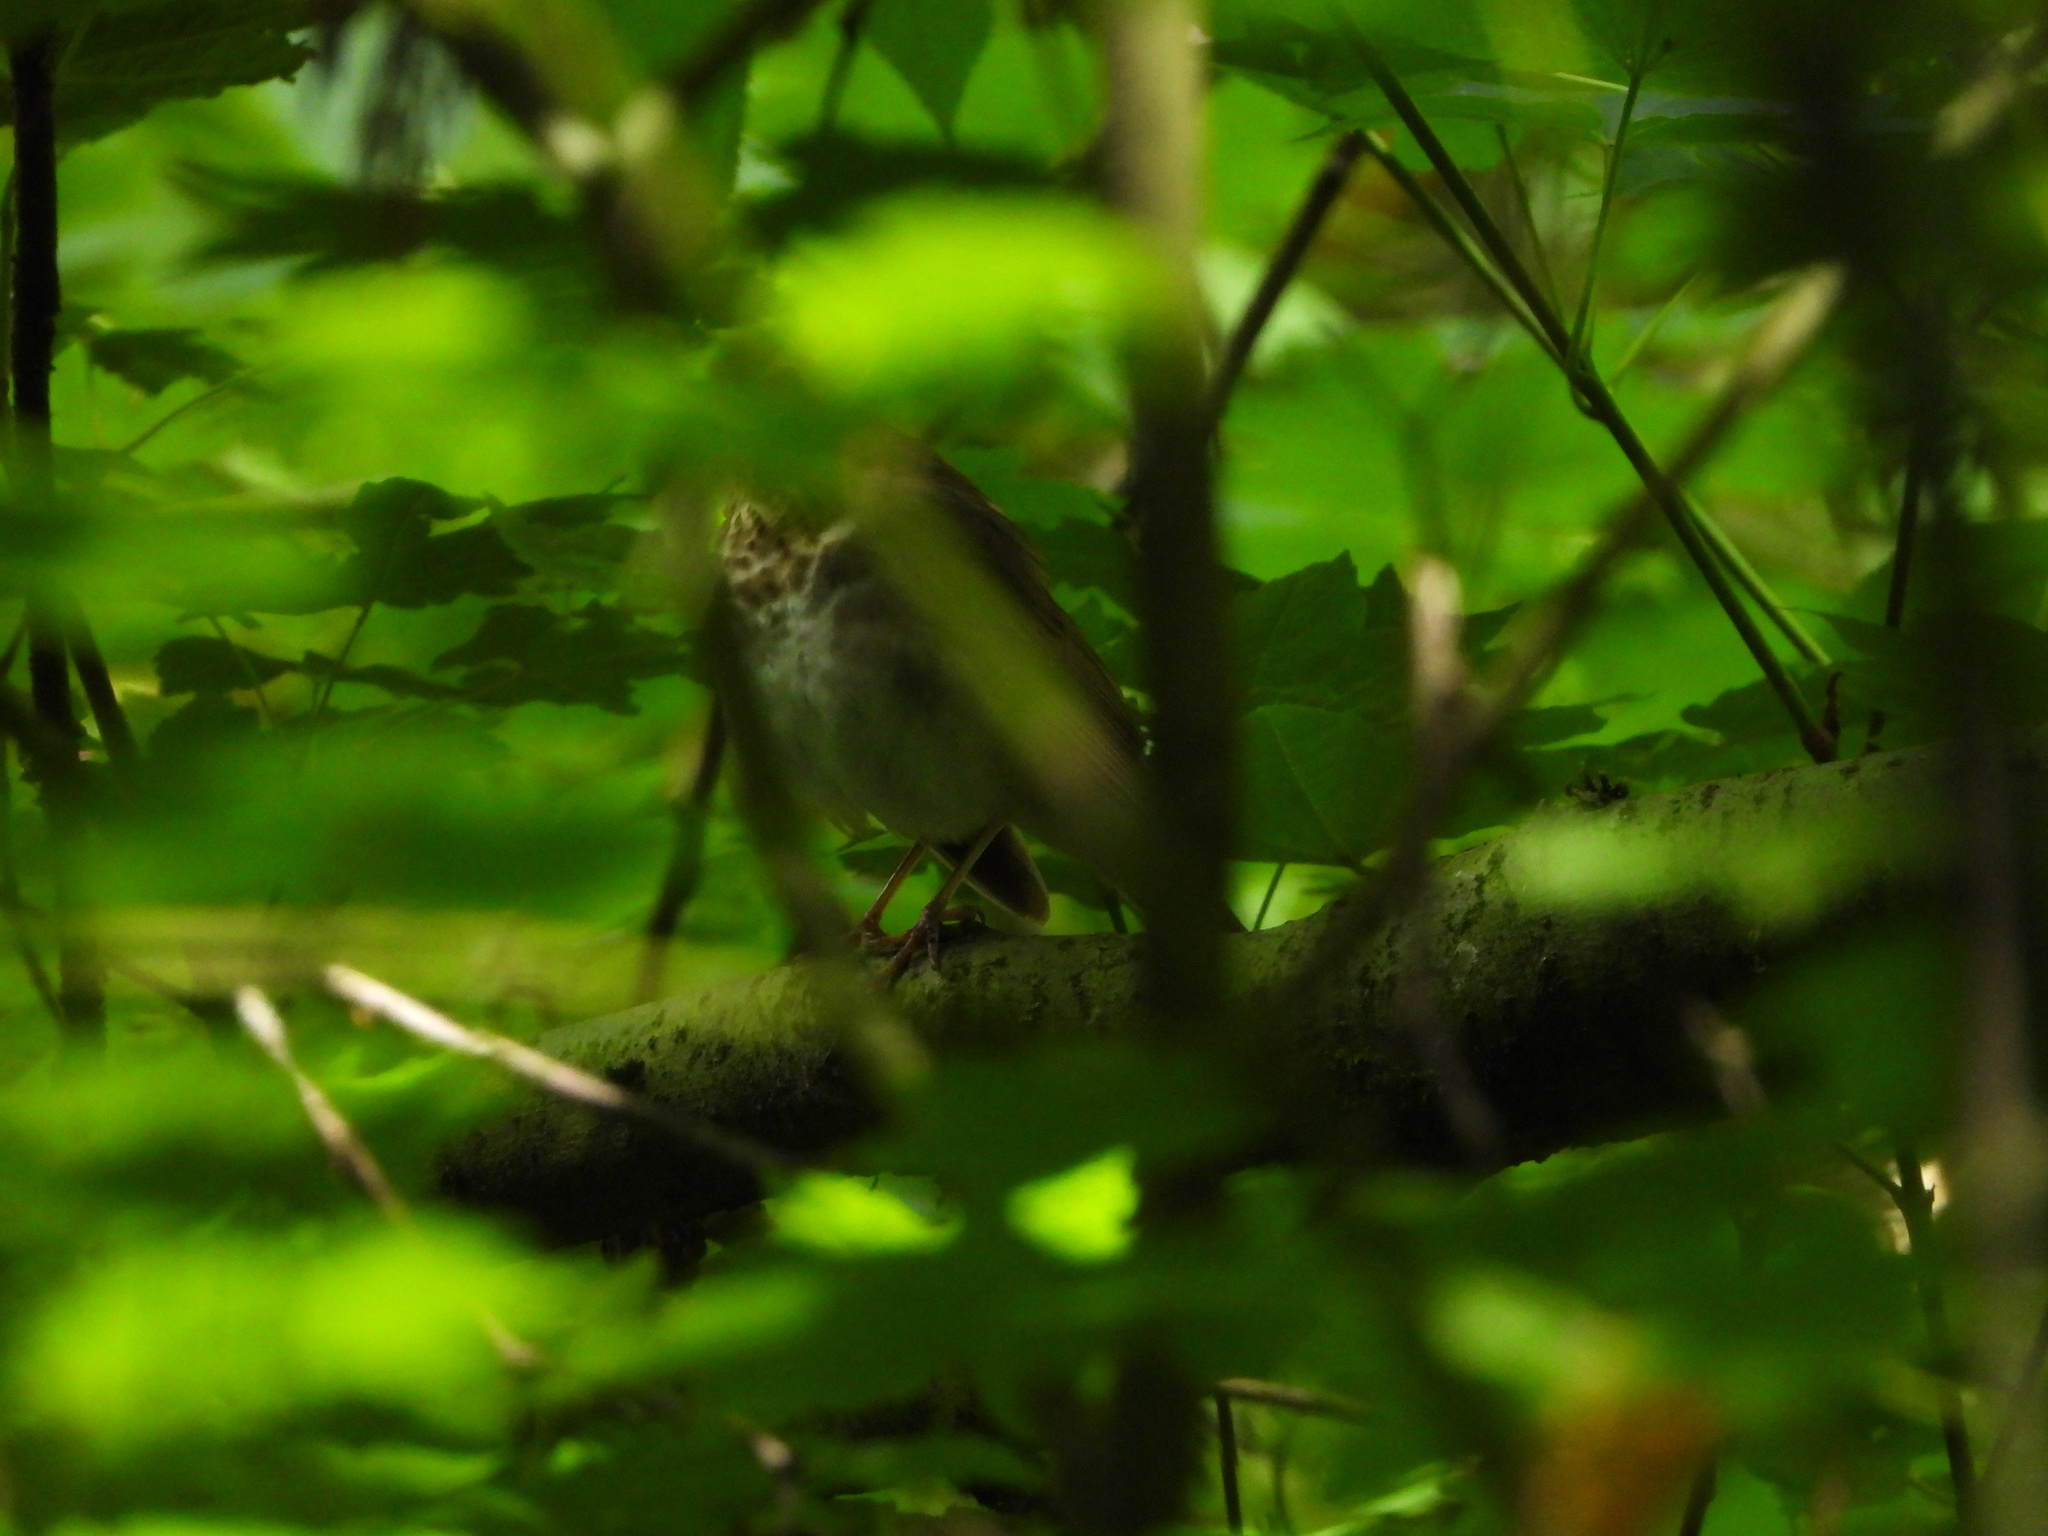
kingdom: Animalia
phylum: Chordata
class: Aves
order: Passeriformes
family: Turdidae
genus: Catharus
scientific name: Catharus ustulatus
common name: Swainson's thrush
